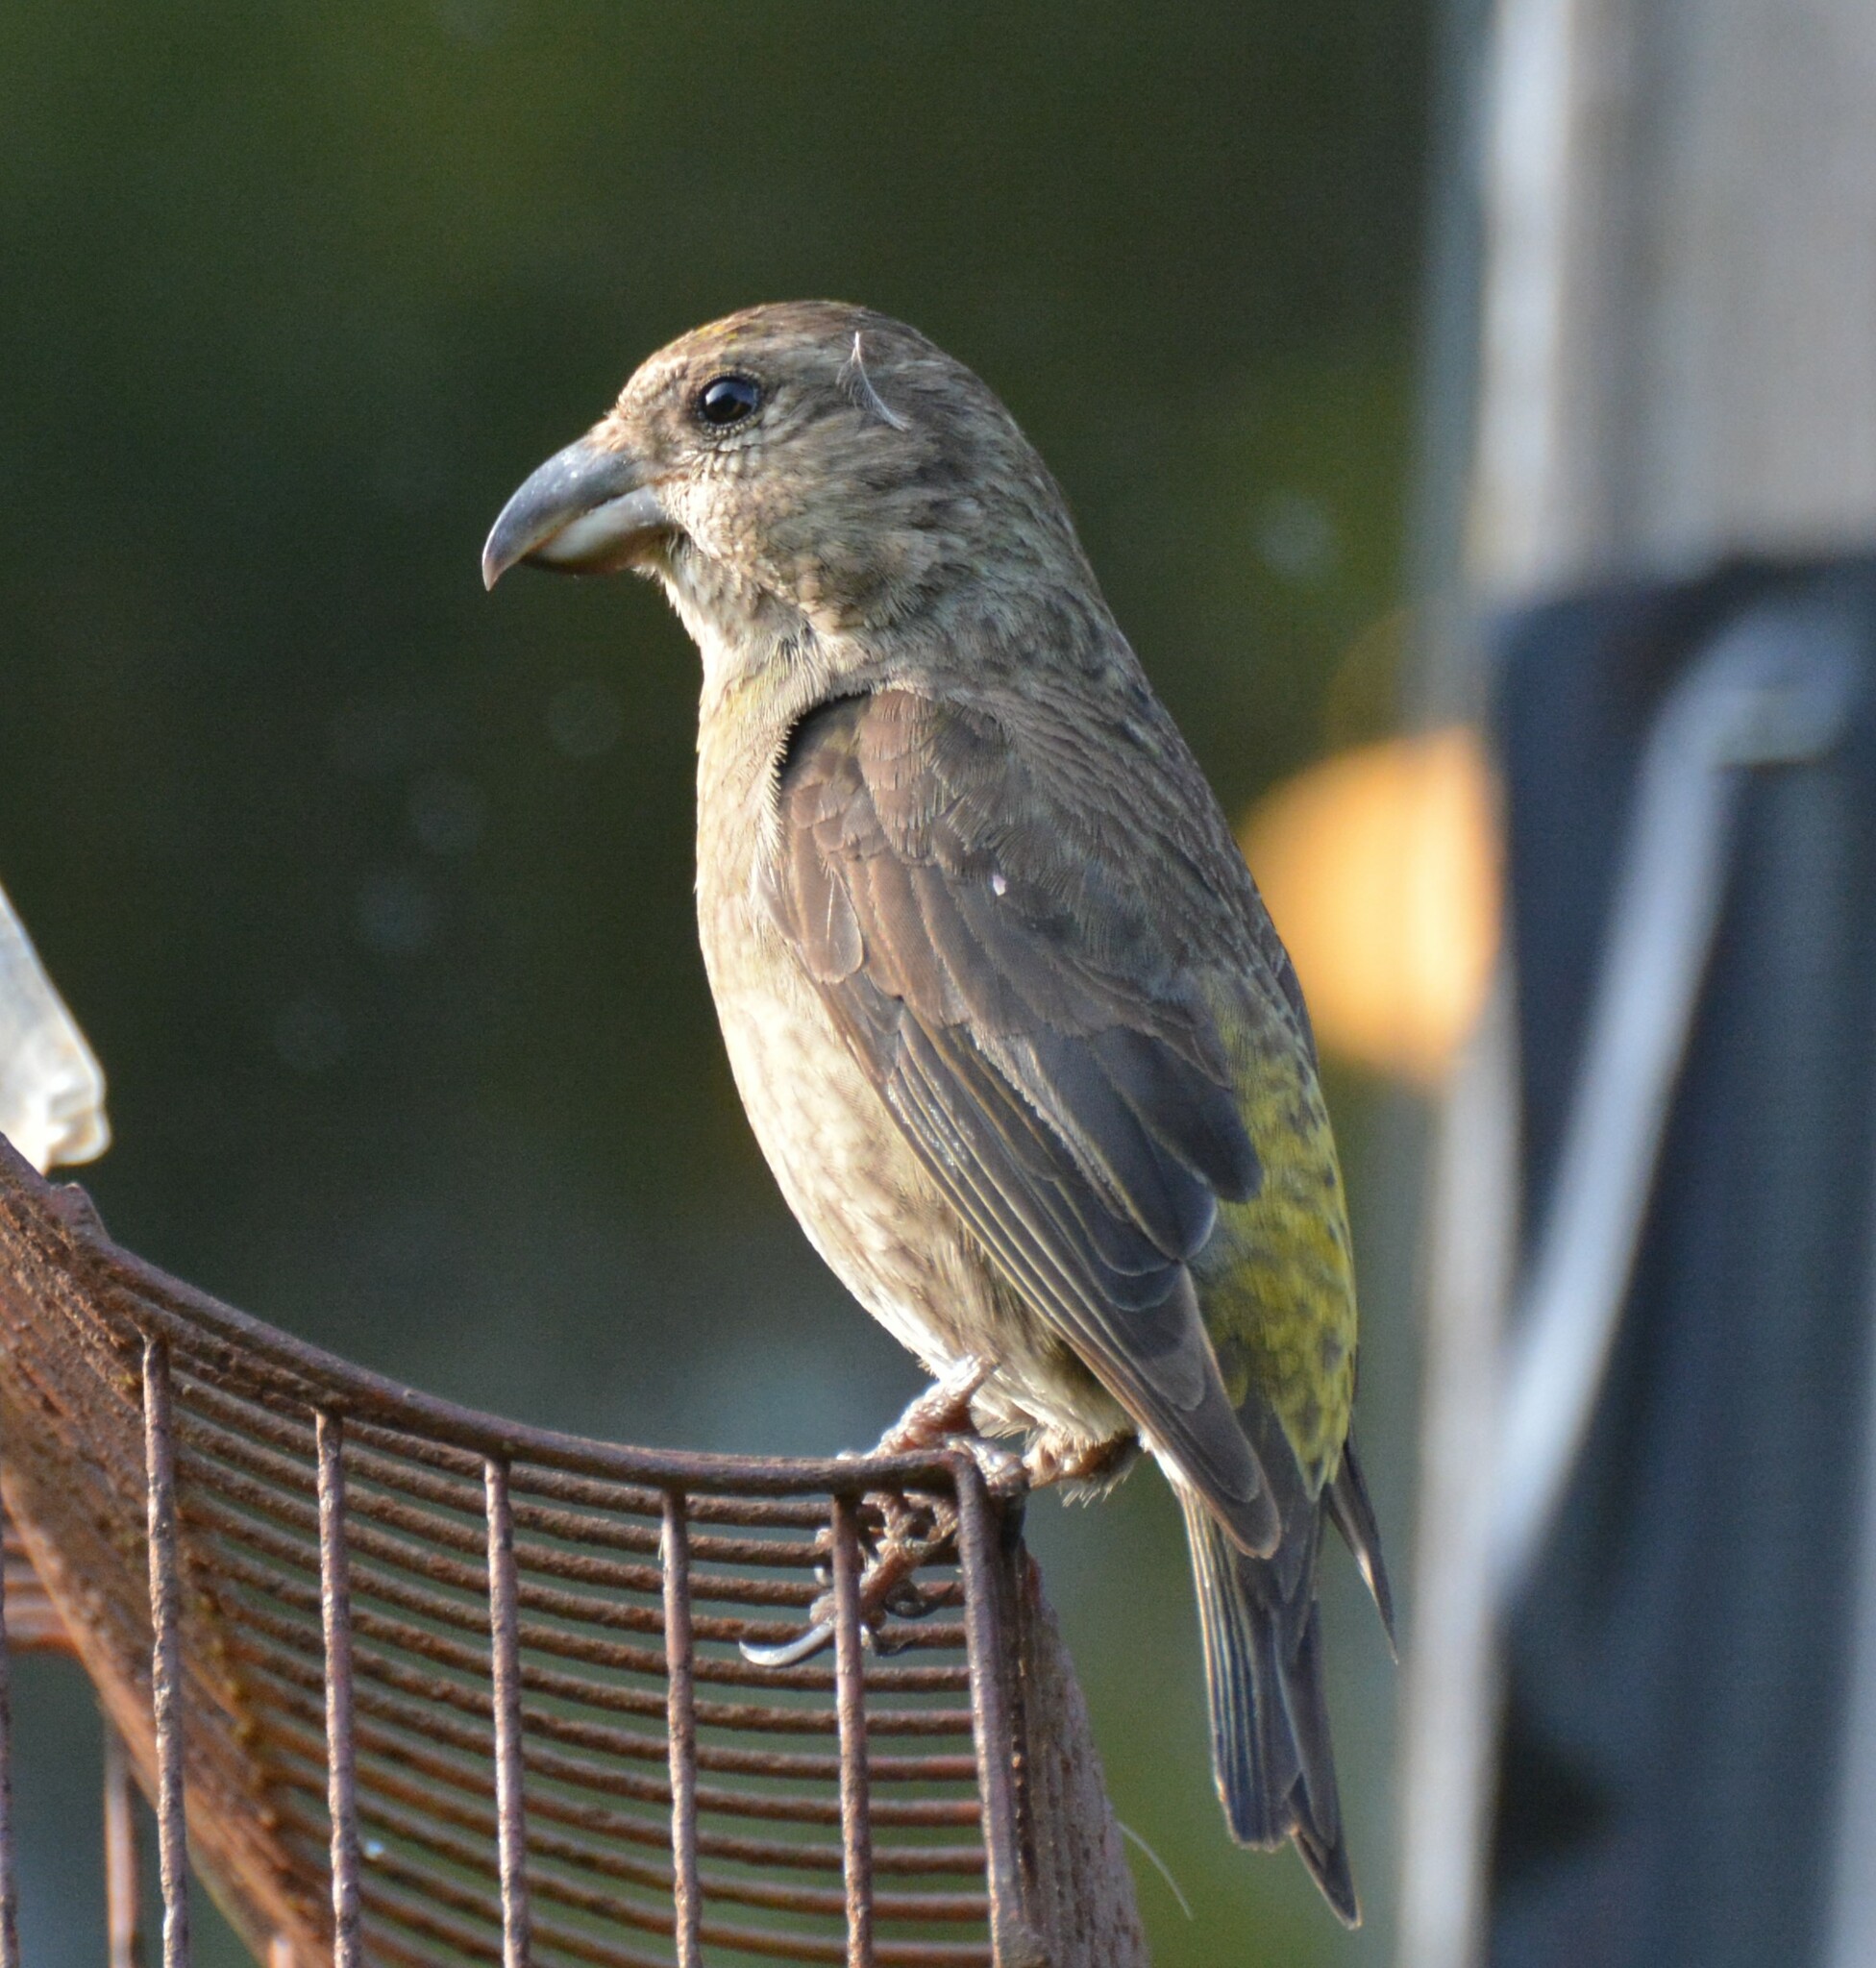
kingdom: Animalia
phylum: Chordata
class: Aves
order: Passeriformes
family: Fringillidae
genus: Loxia
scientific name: Loxia curvirostra
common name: Red crossbill
